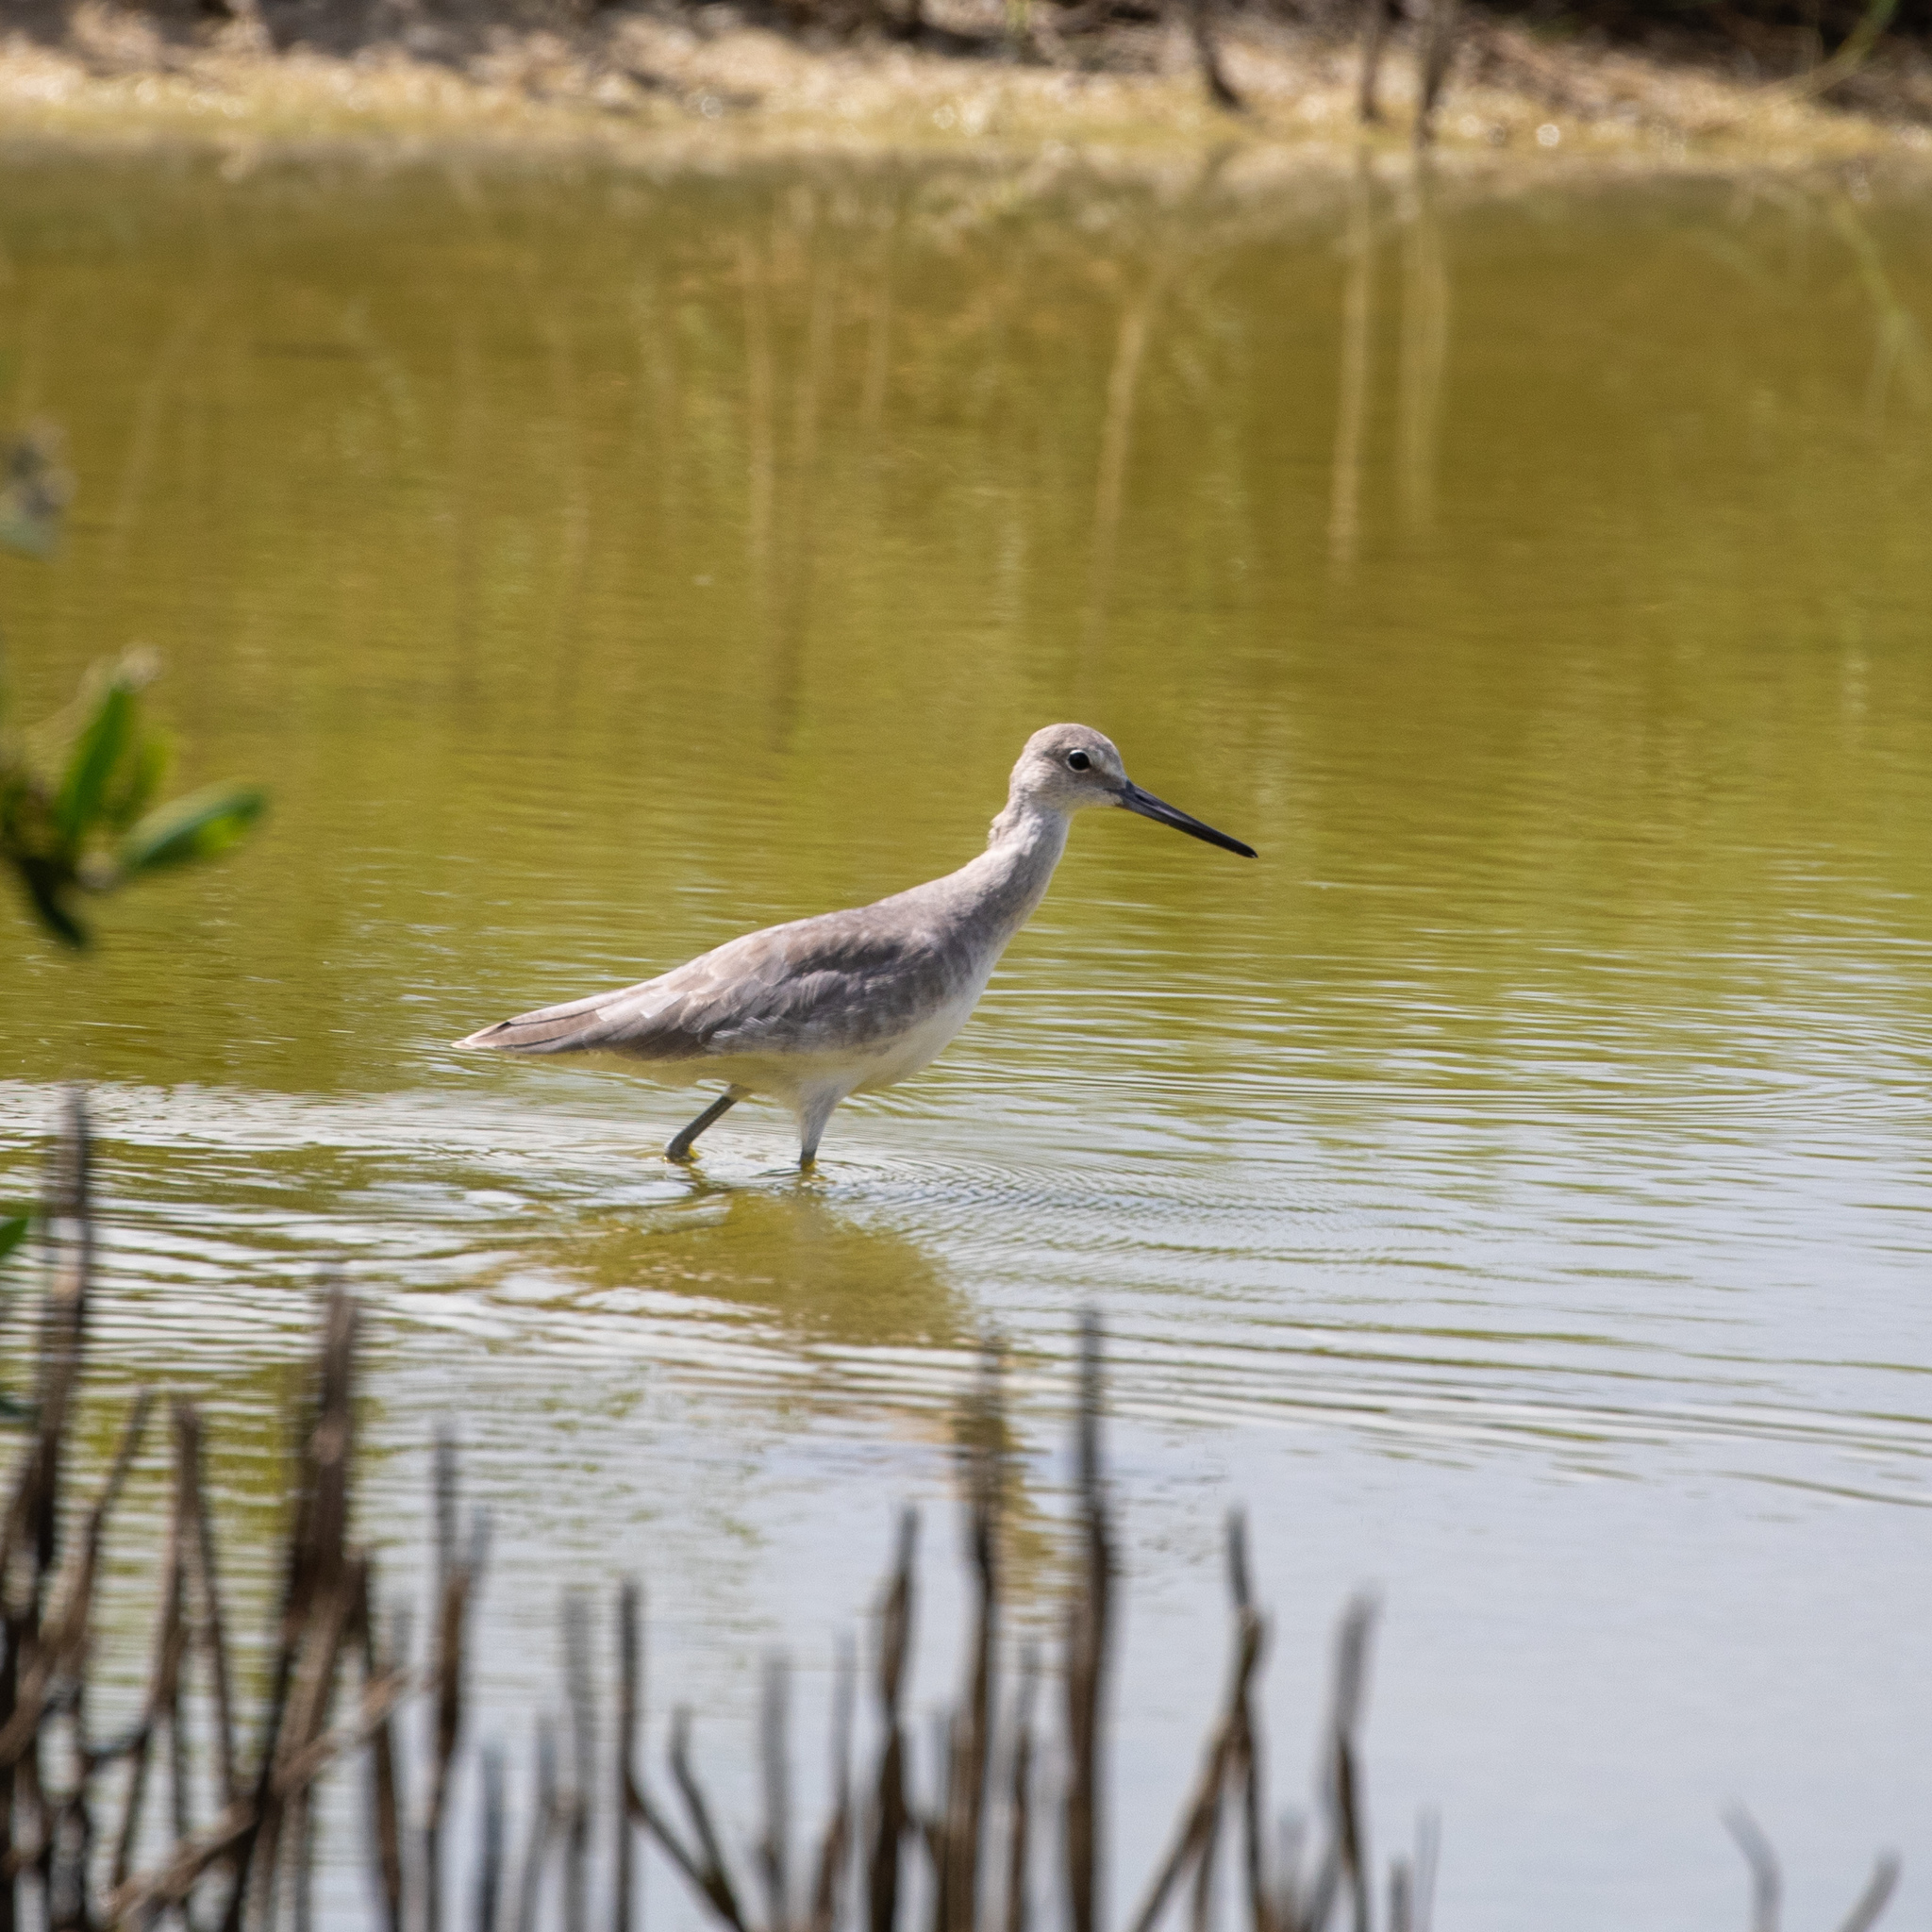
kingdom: Animalia
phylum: Chordata
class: Aves
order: Charadriiformes
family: Scolopacidae
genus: Tringa
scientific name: Tringa semipalmata
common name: Willet
